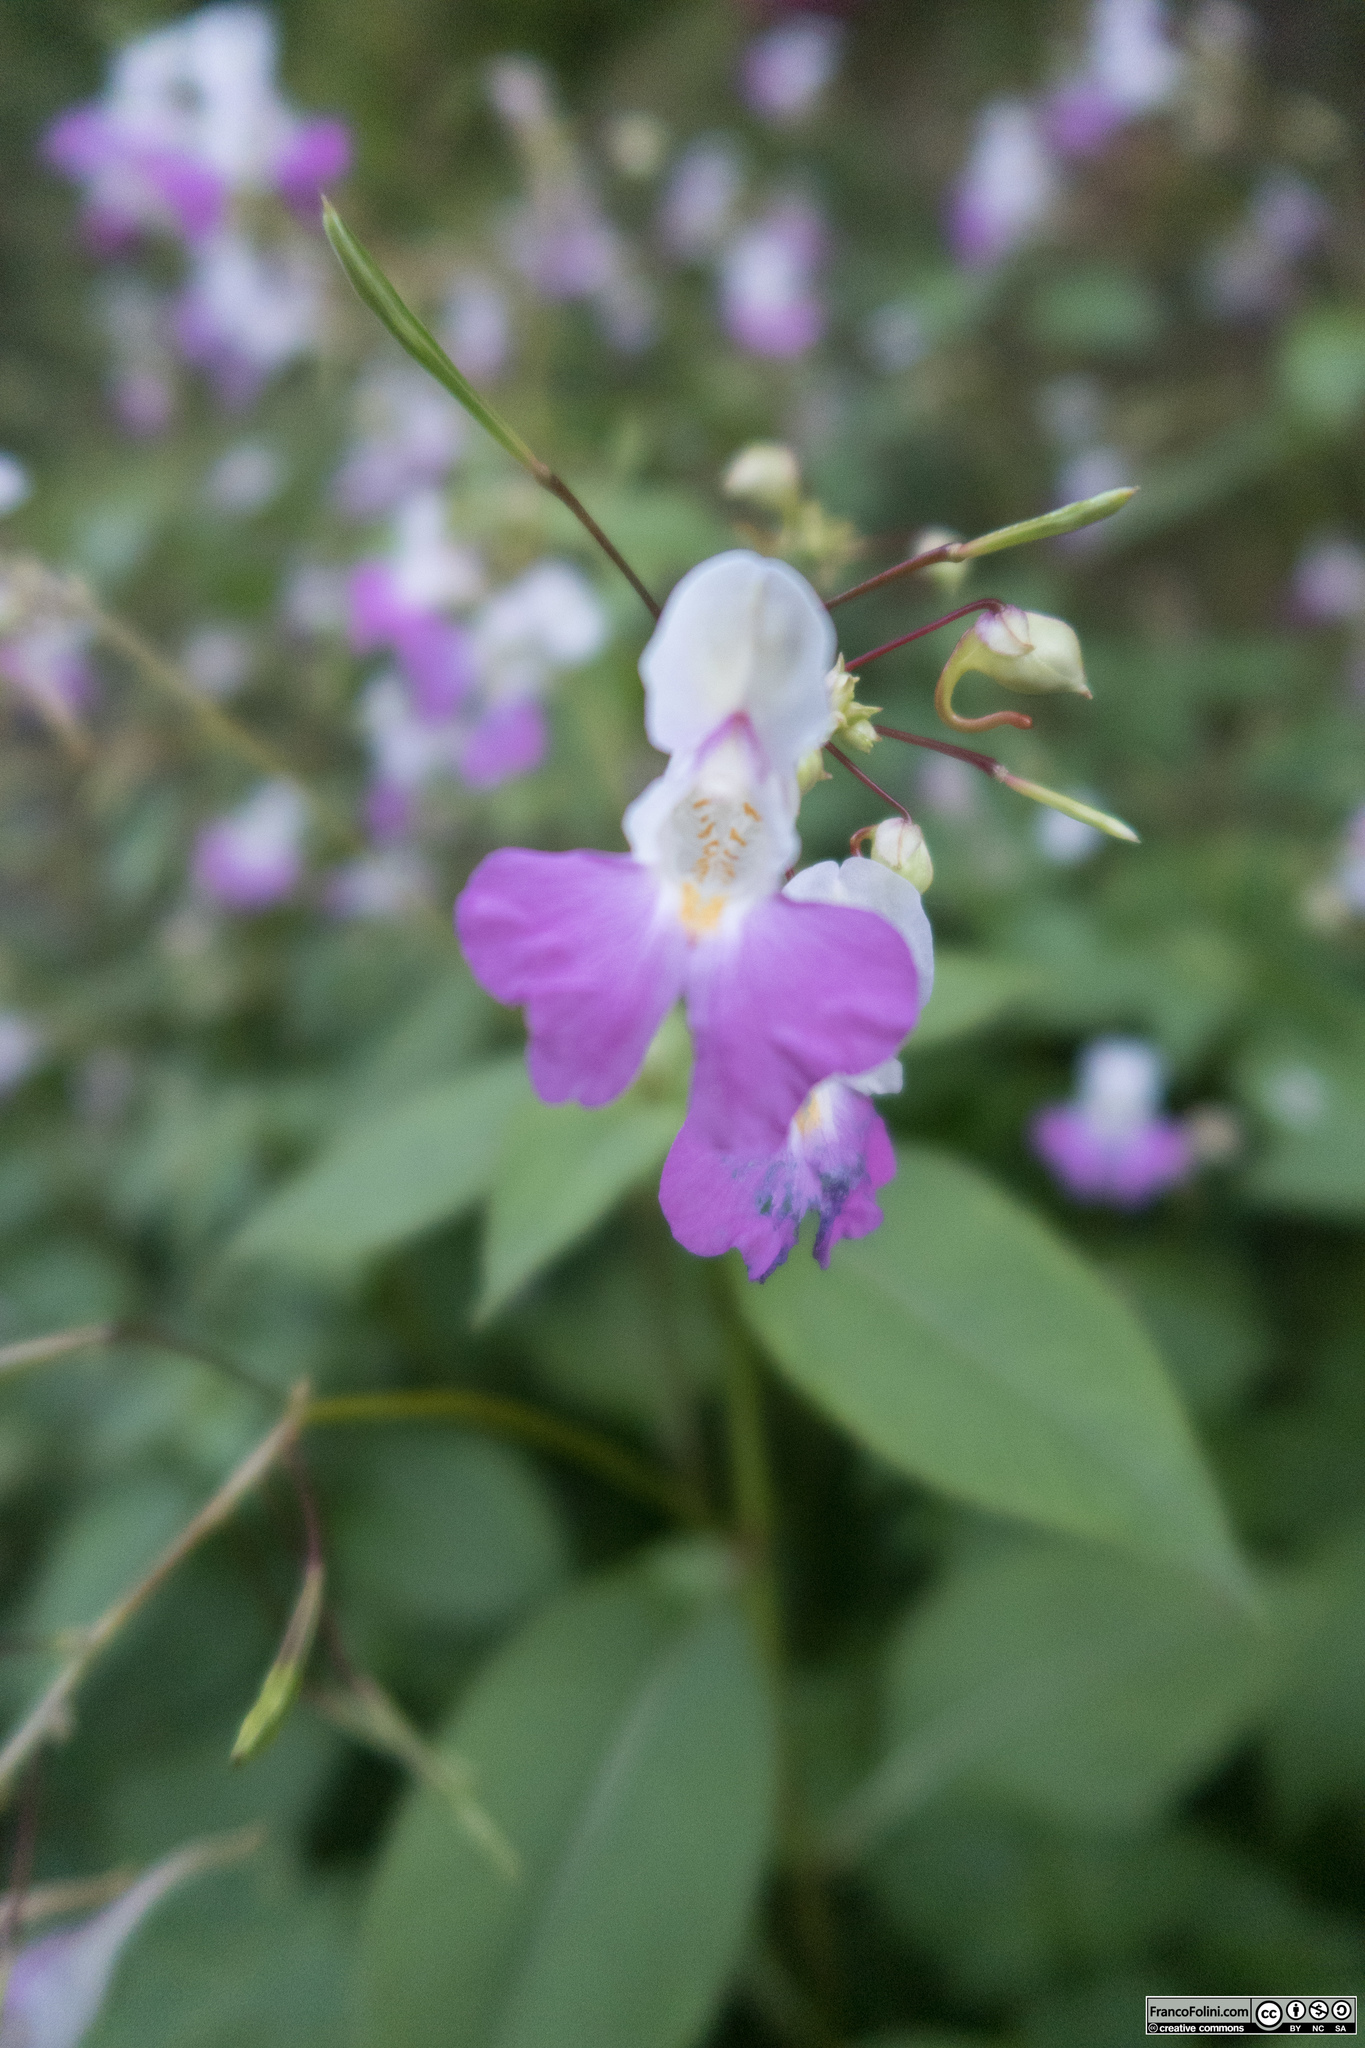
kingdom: Plantae
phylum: Tracheophyta
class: Magnoliopsida
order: Ericales
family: Balsaminaceae
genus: Impatiens
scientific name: Impatiens balfourii
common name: Balfour's touch-me-not
